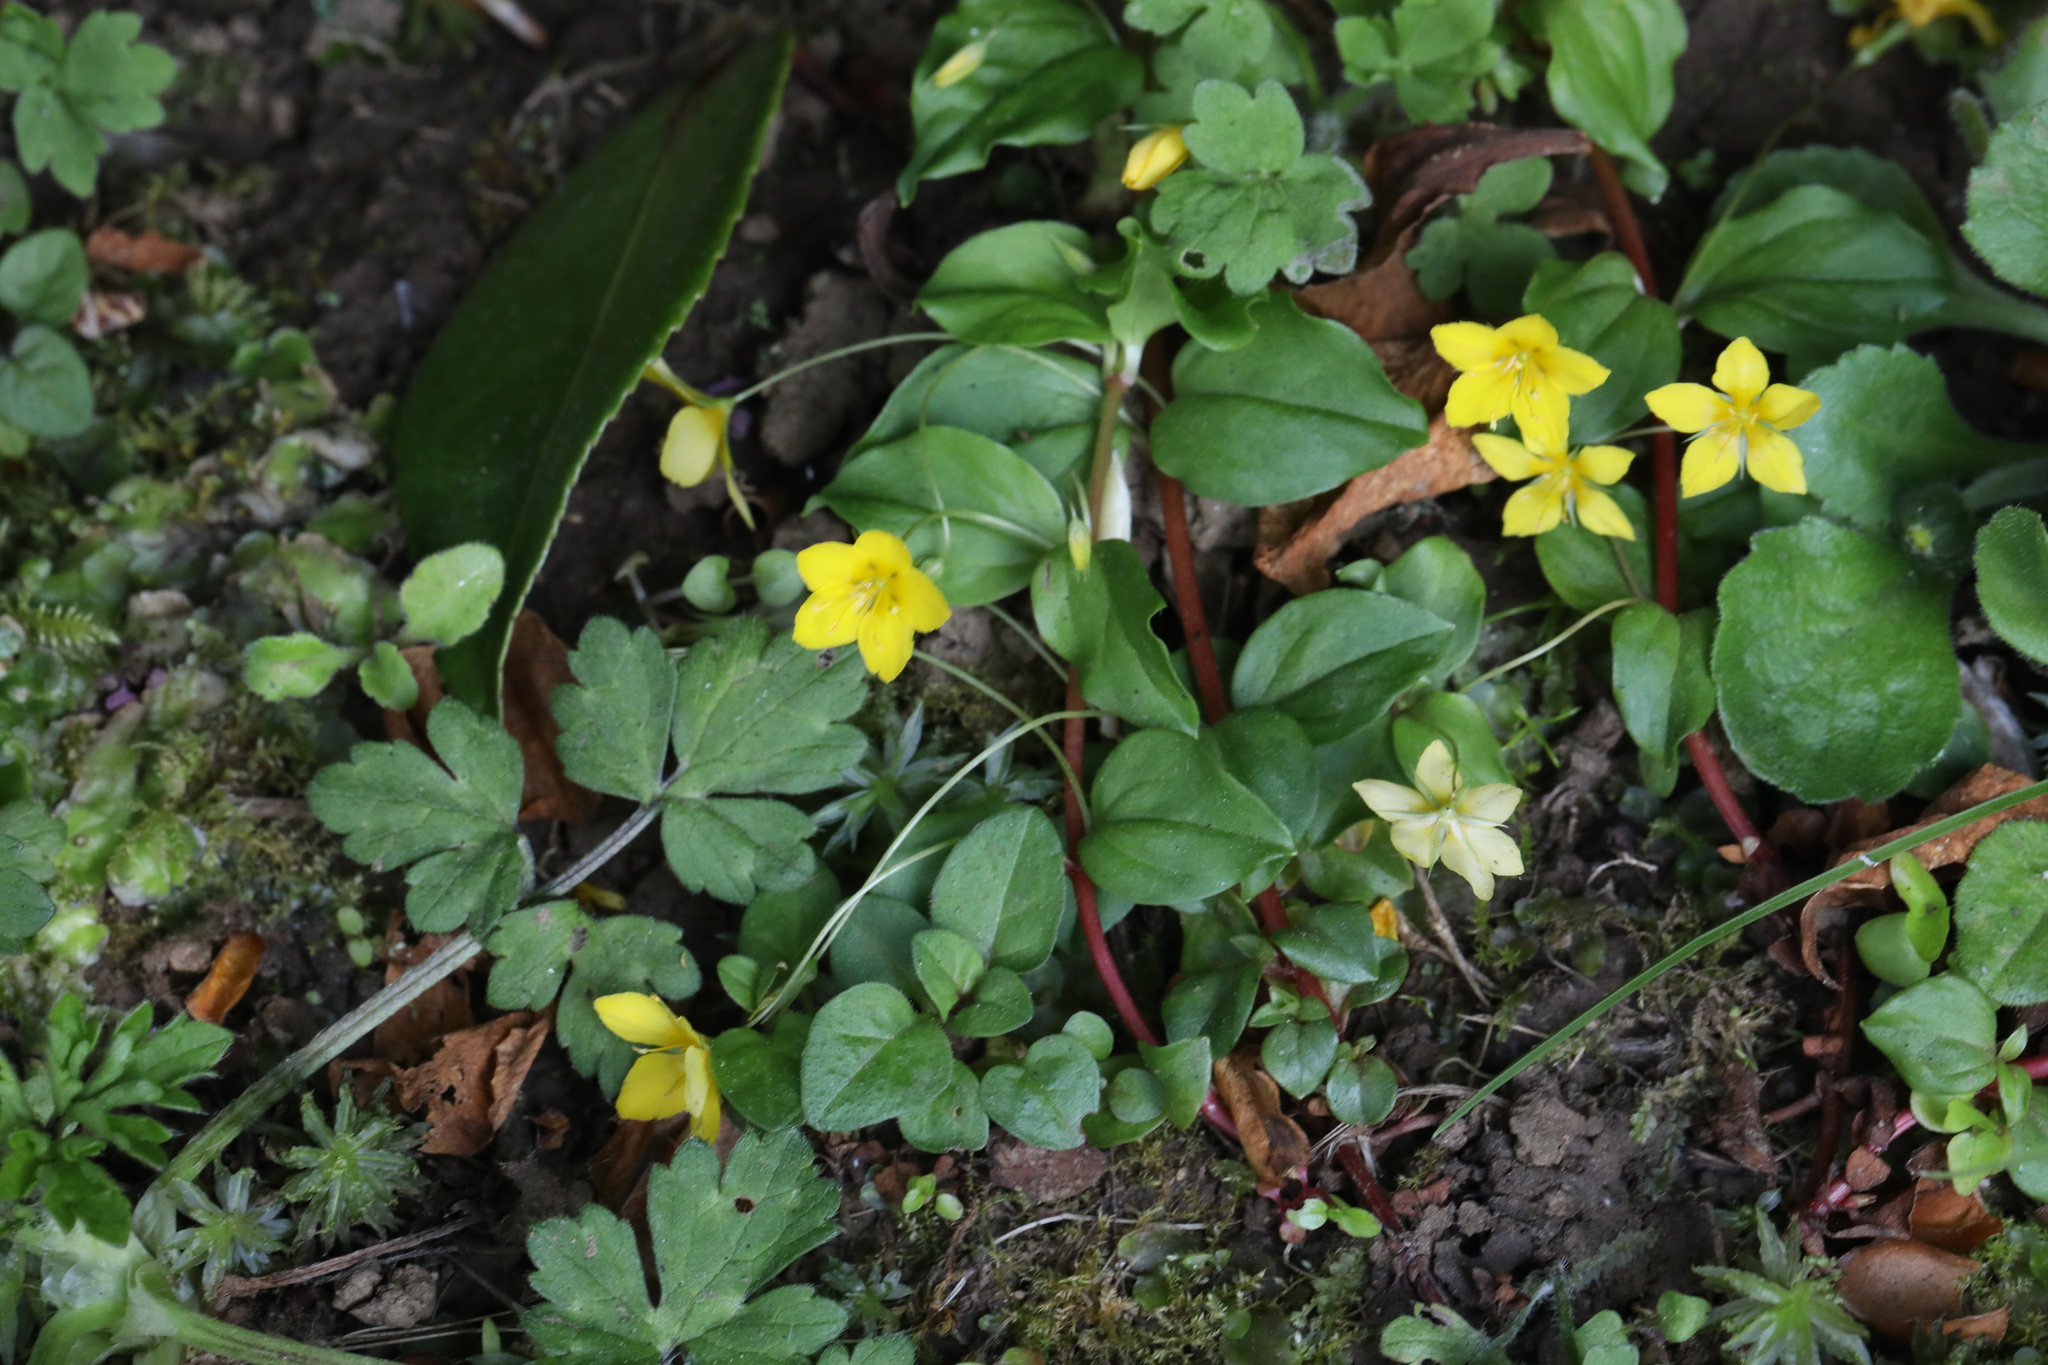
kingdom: Plantae
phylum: Tracheophyta
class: Magnoliopsida
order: Ericales
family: Primulaceae
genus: Lysimachia
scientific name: Lysimachia nemorum
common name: Yellow pimpernel
